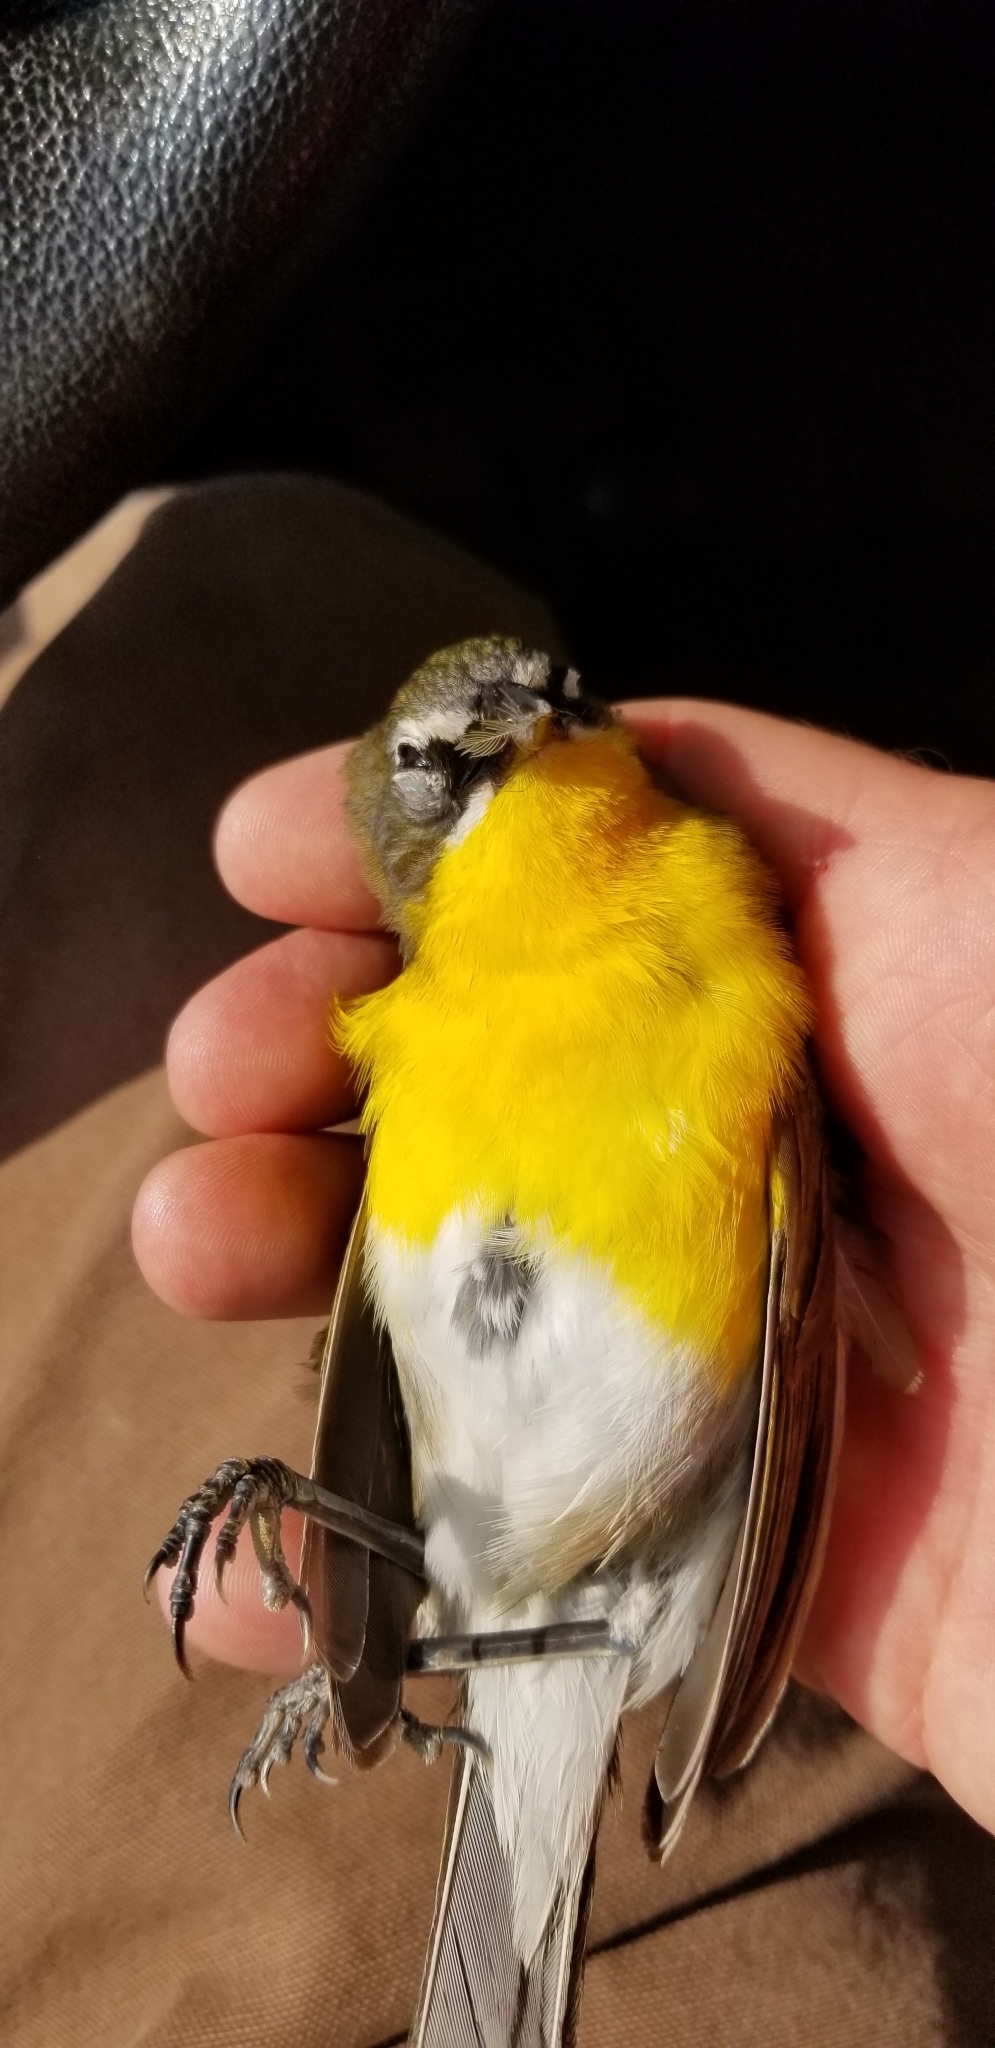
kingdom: Animalia
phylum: Chordata
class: Aves
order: Passeriformes
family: Parulidae
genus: Icteria
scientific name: Icteria virens
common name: Yellow-breasted chat
